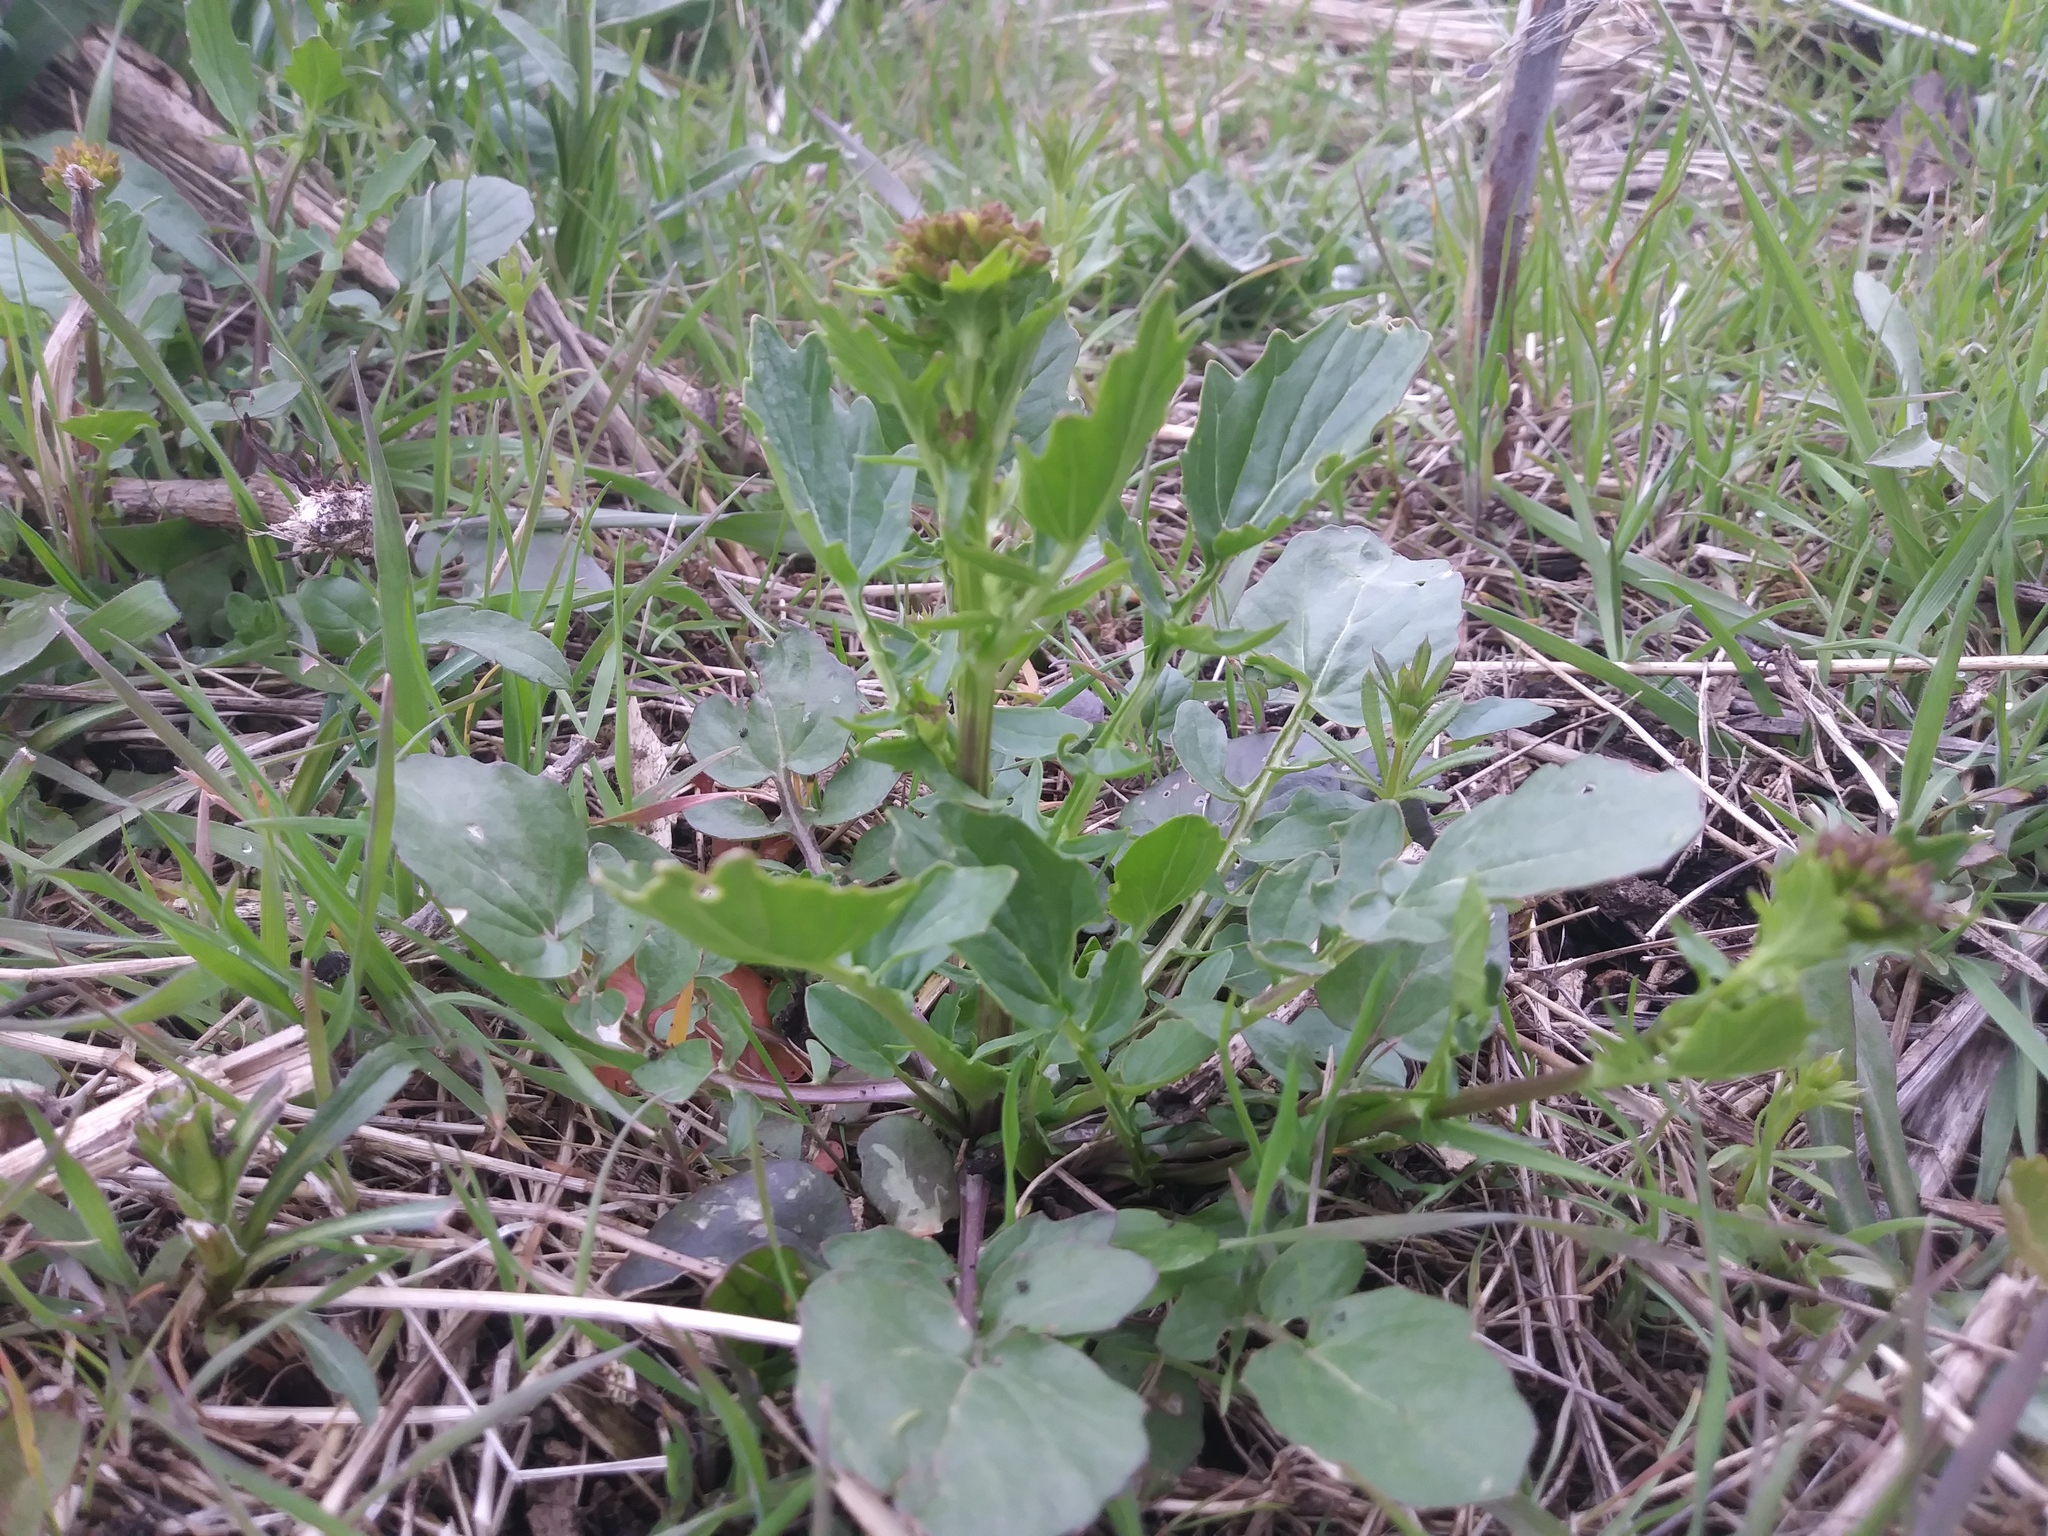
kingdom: Plantae
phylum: Tracheophyta
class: Magnoliopsida
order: Brassicales
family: Brassicaceae
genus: Barbarea
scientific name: Barbarea vulgaris
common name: Cressy-greens
